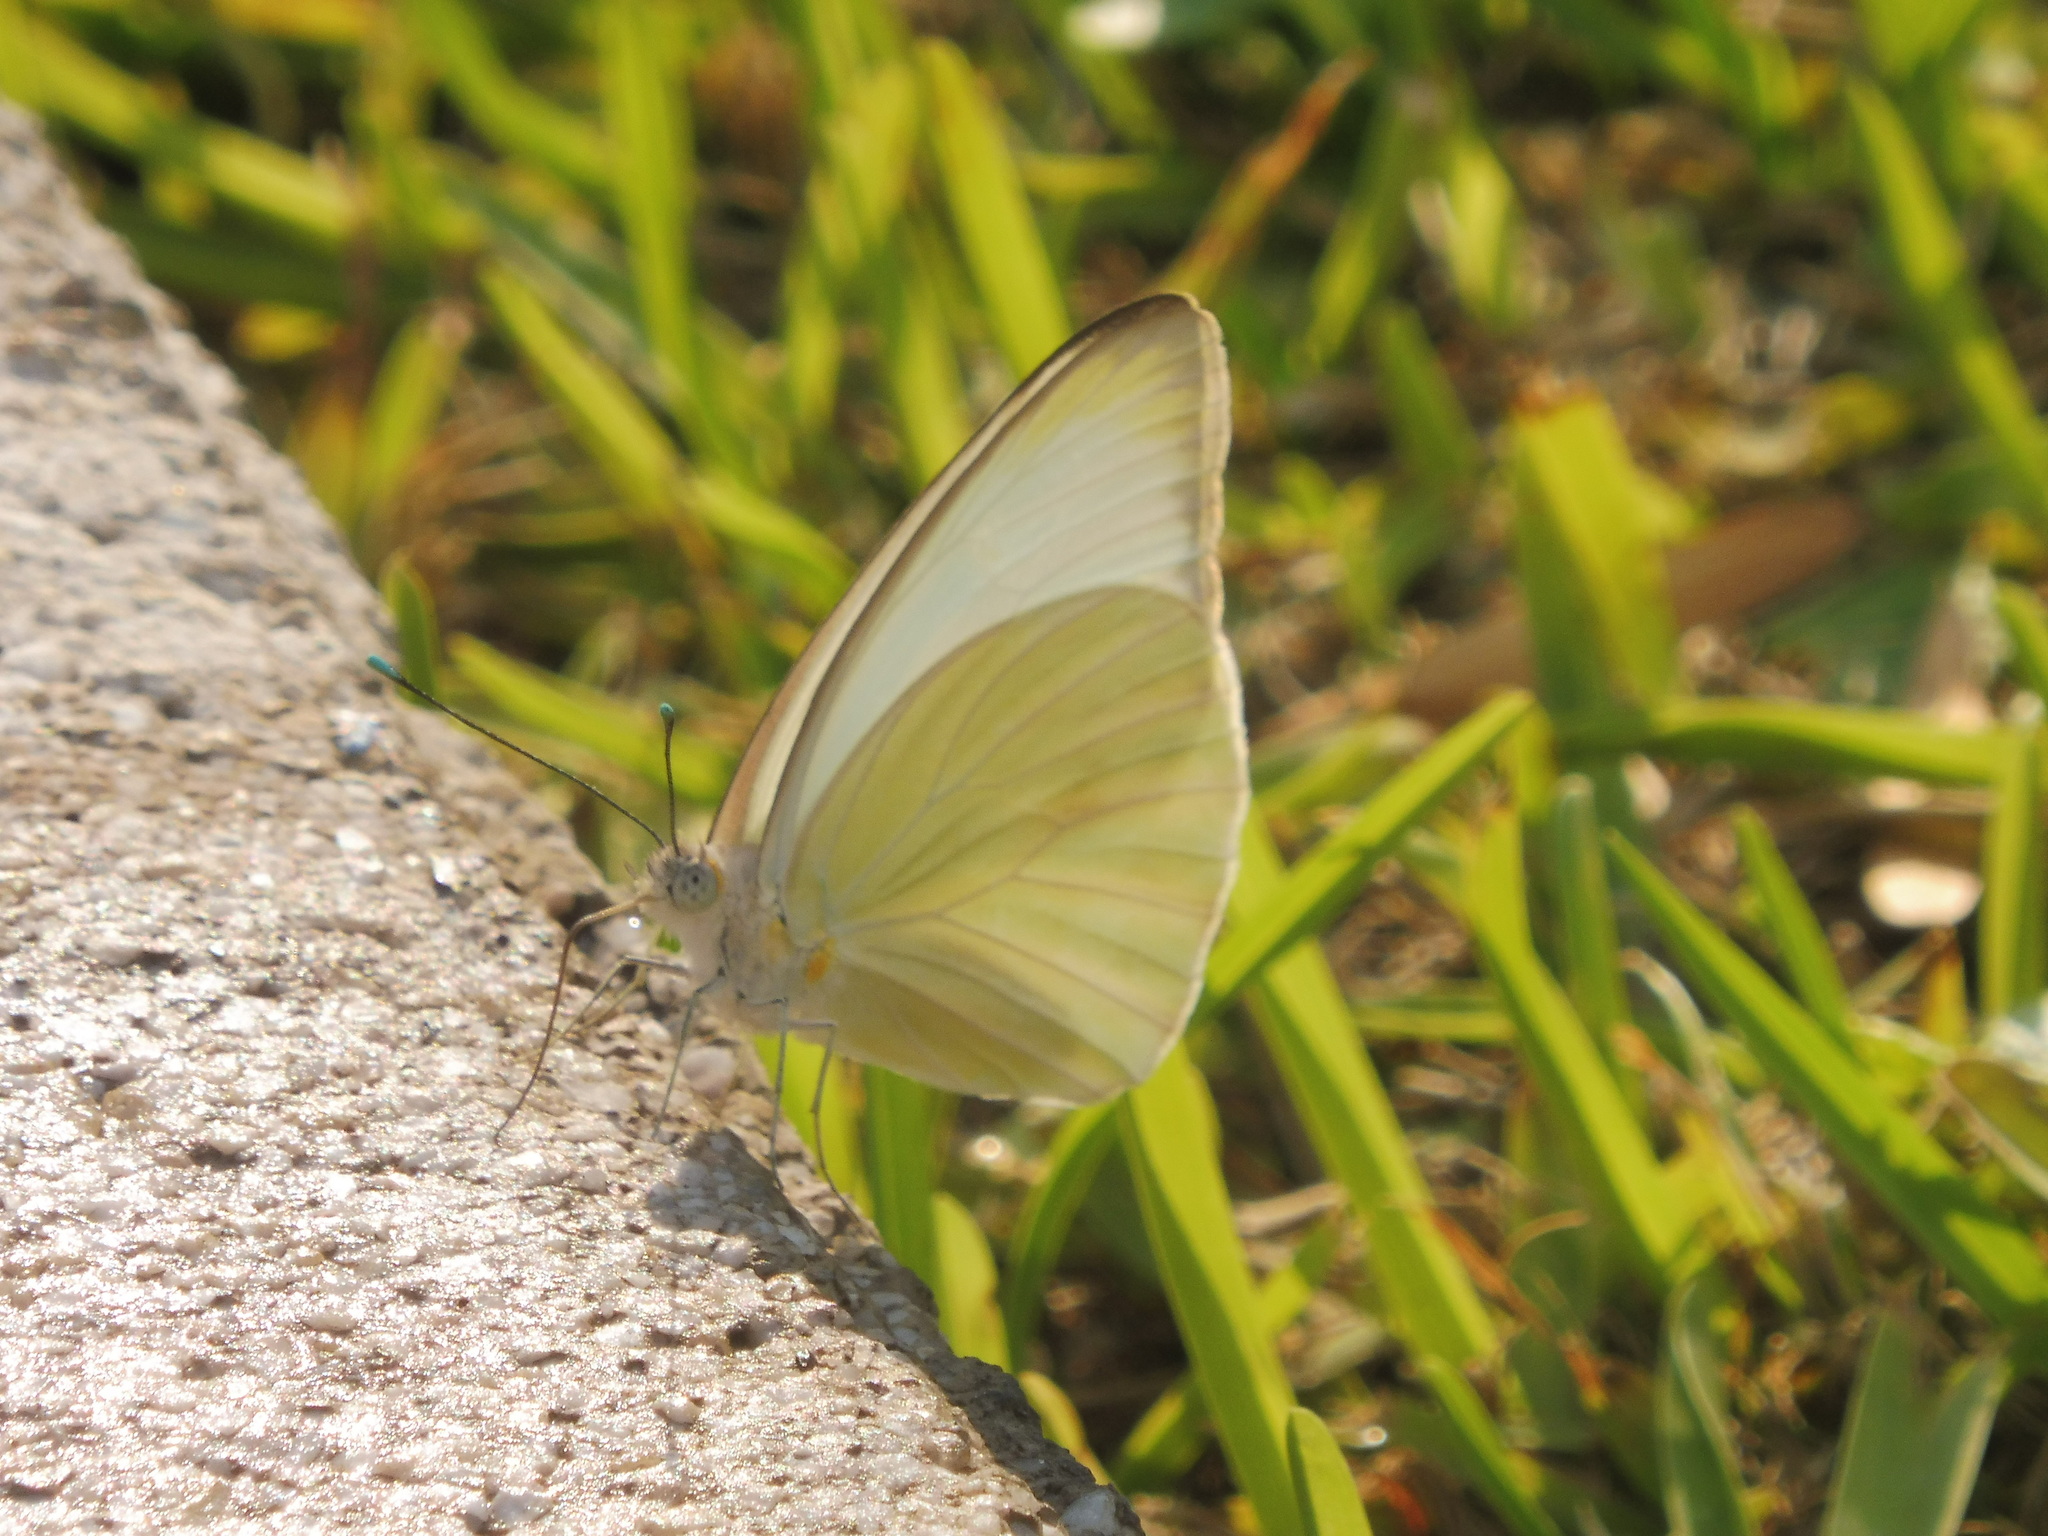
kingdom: Animalia
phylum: Arthropoda
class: Insecta
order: Lepidoptera
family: Pieridae
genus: Ascia
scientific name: Ascia monuste
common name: Great southern white
